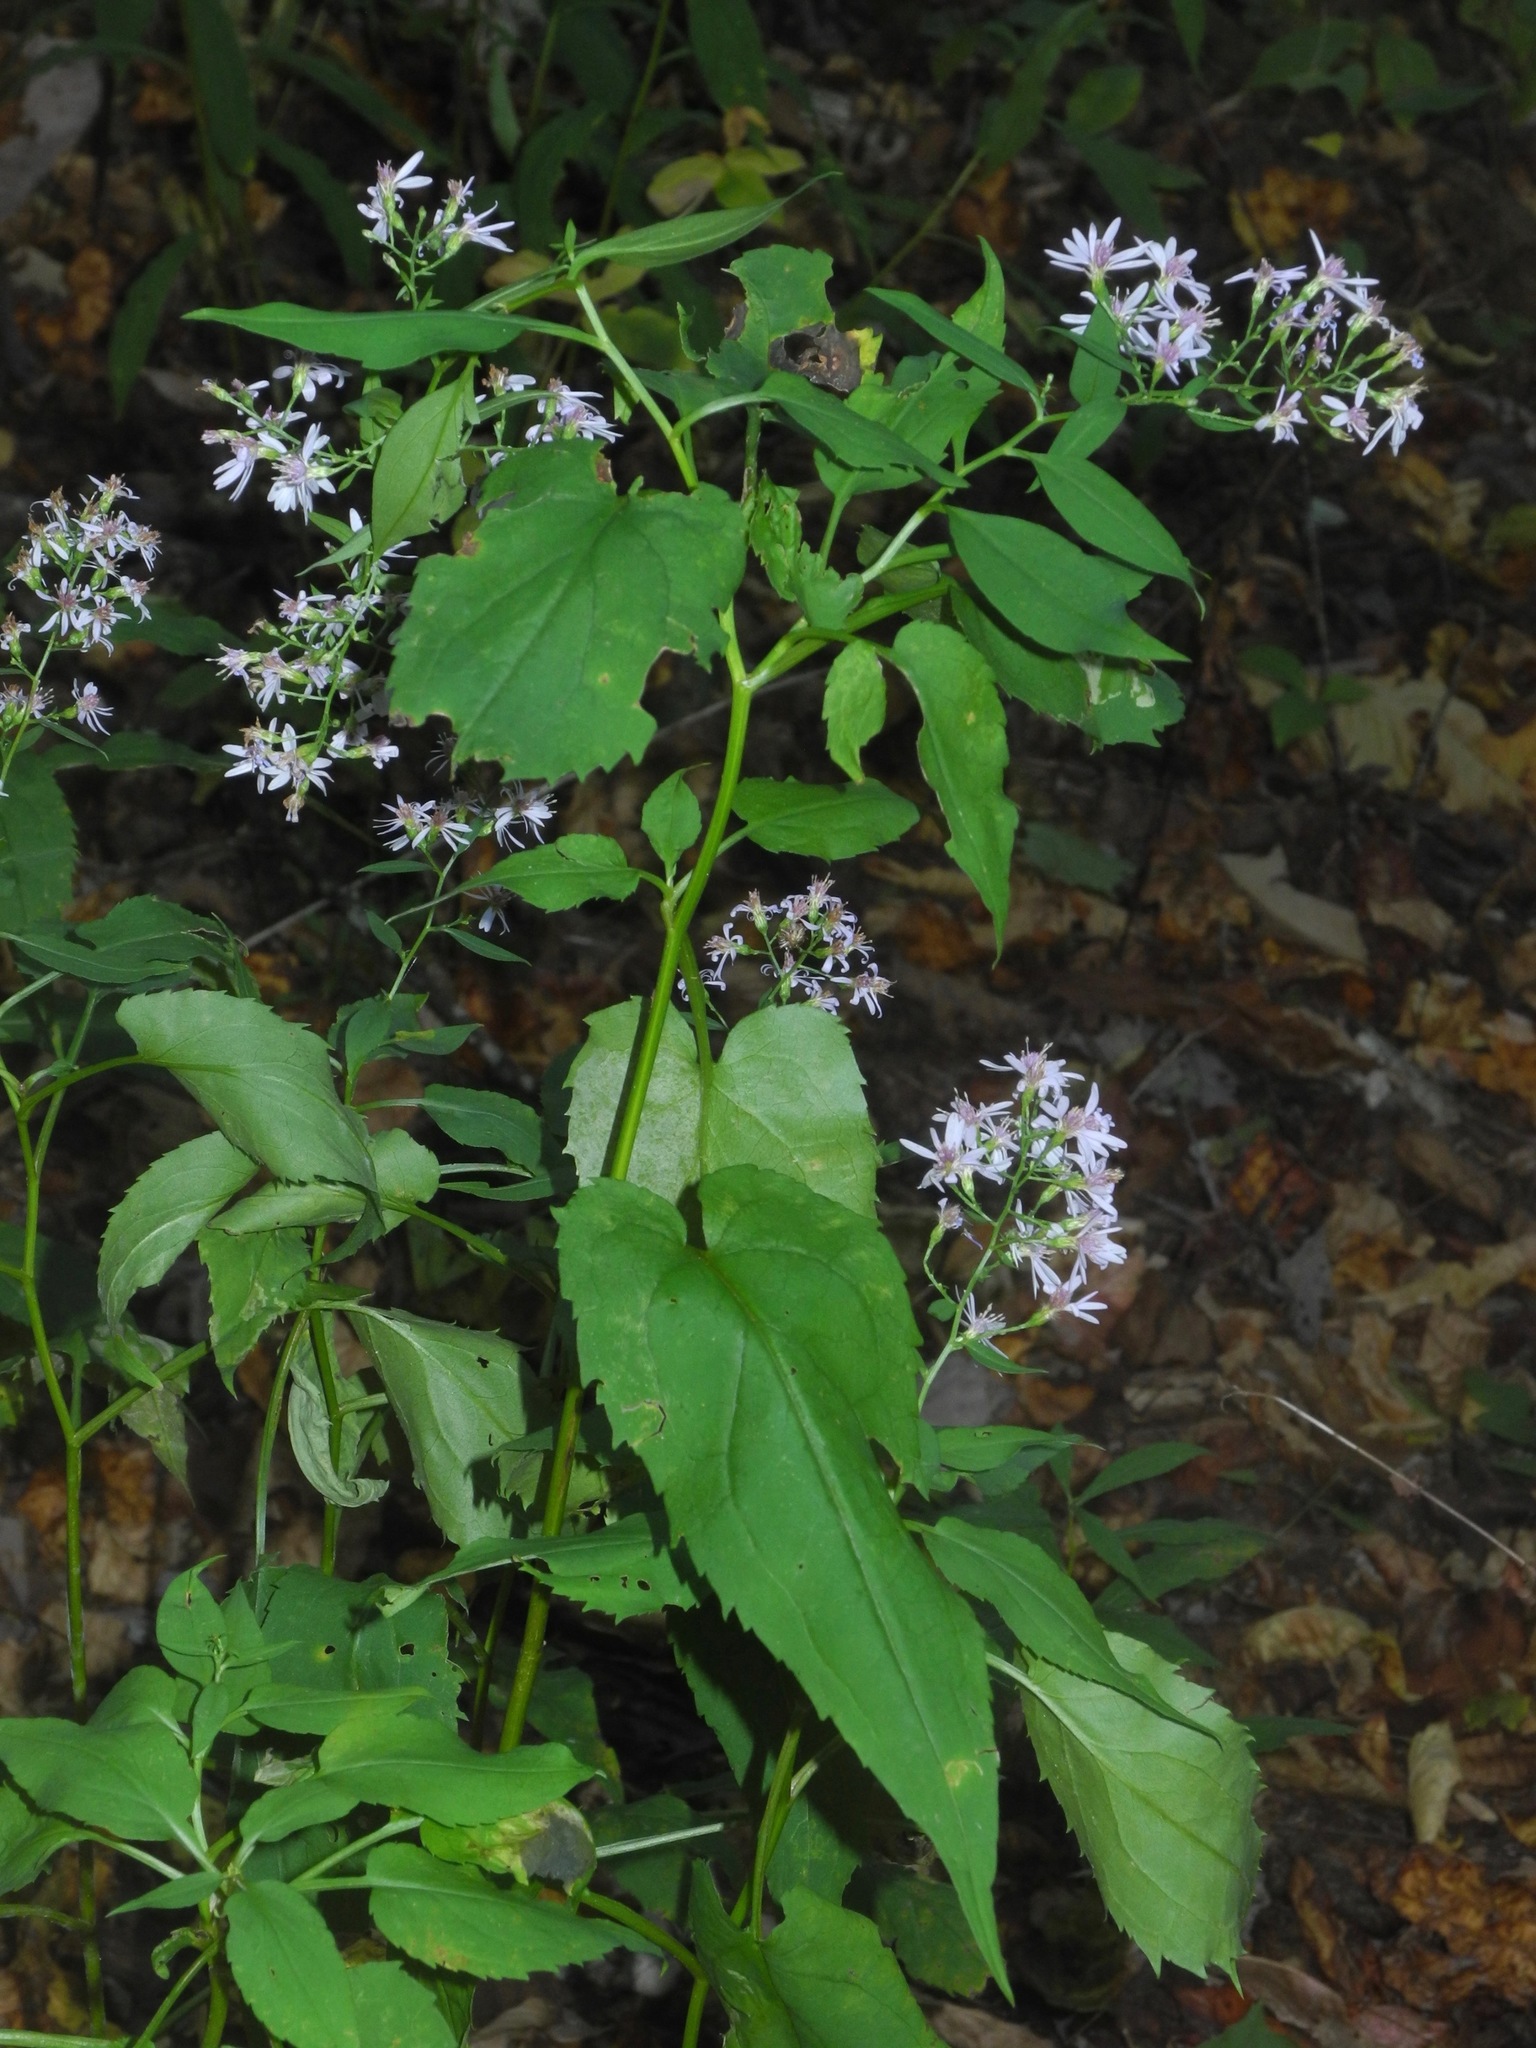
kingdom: Plantae
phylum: Tracheophyta
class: Magnoliopsida
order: Asterales
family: Asteraceae
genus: Symphyotrichum
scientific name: Symphyotrichum cordifolium
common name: Beeweed
